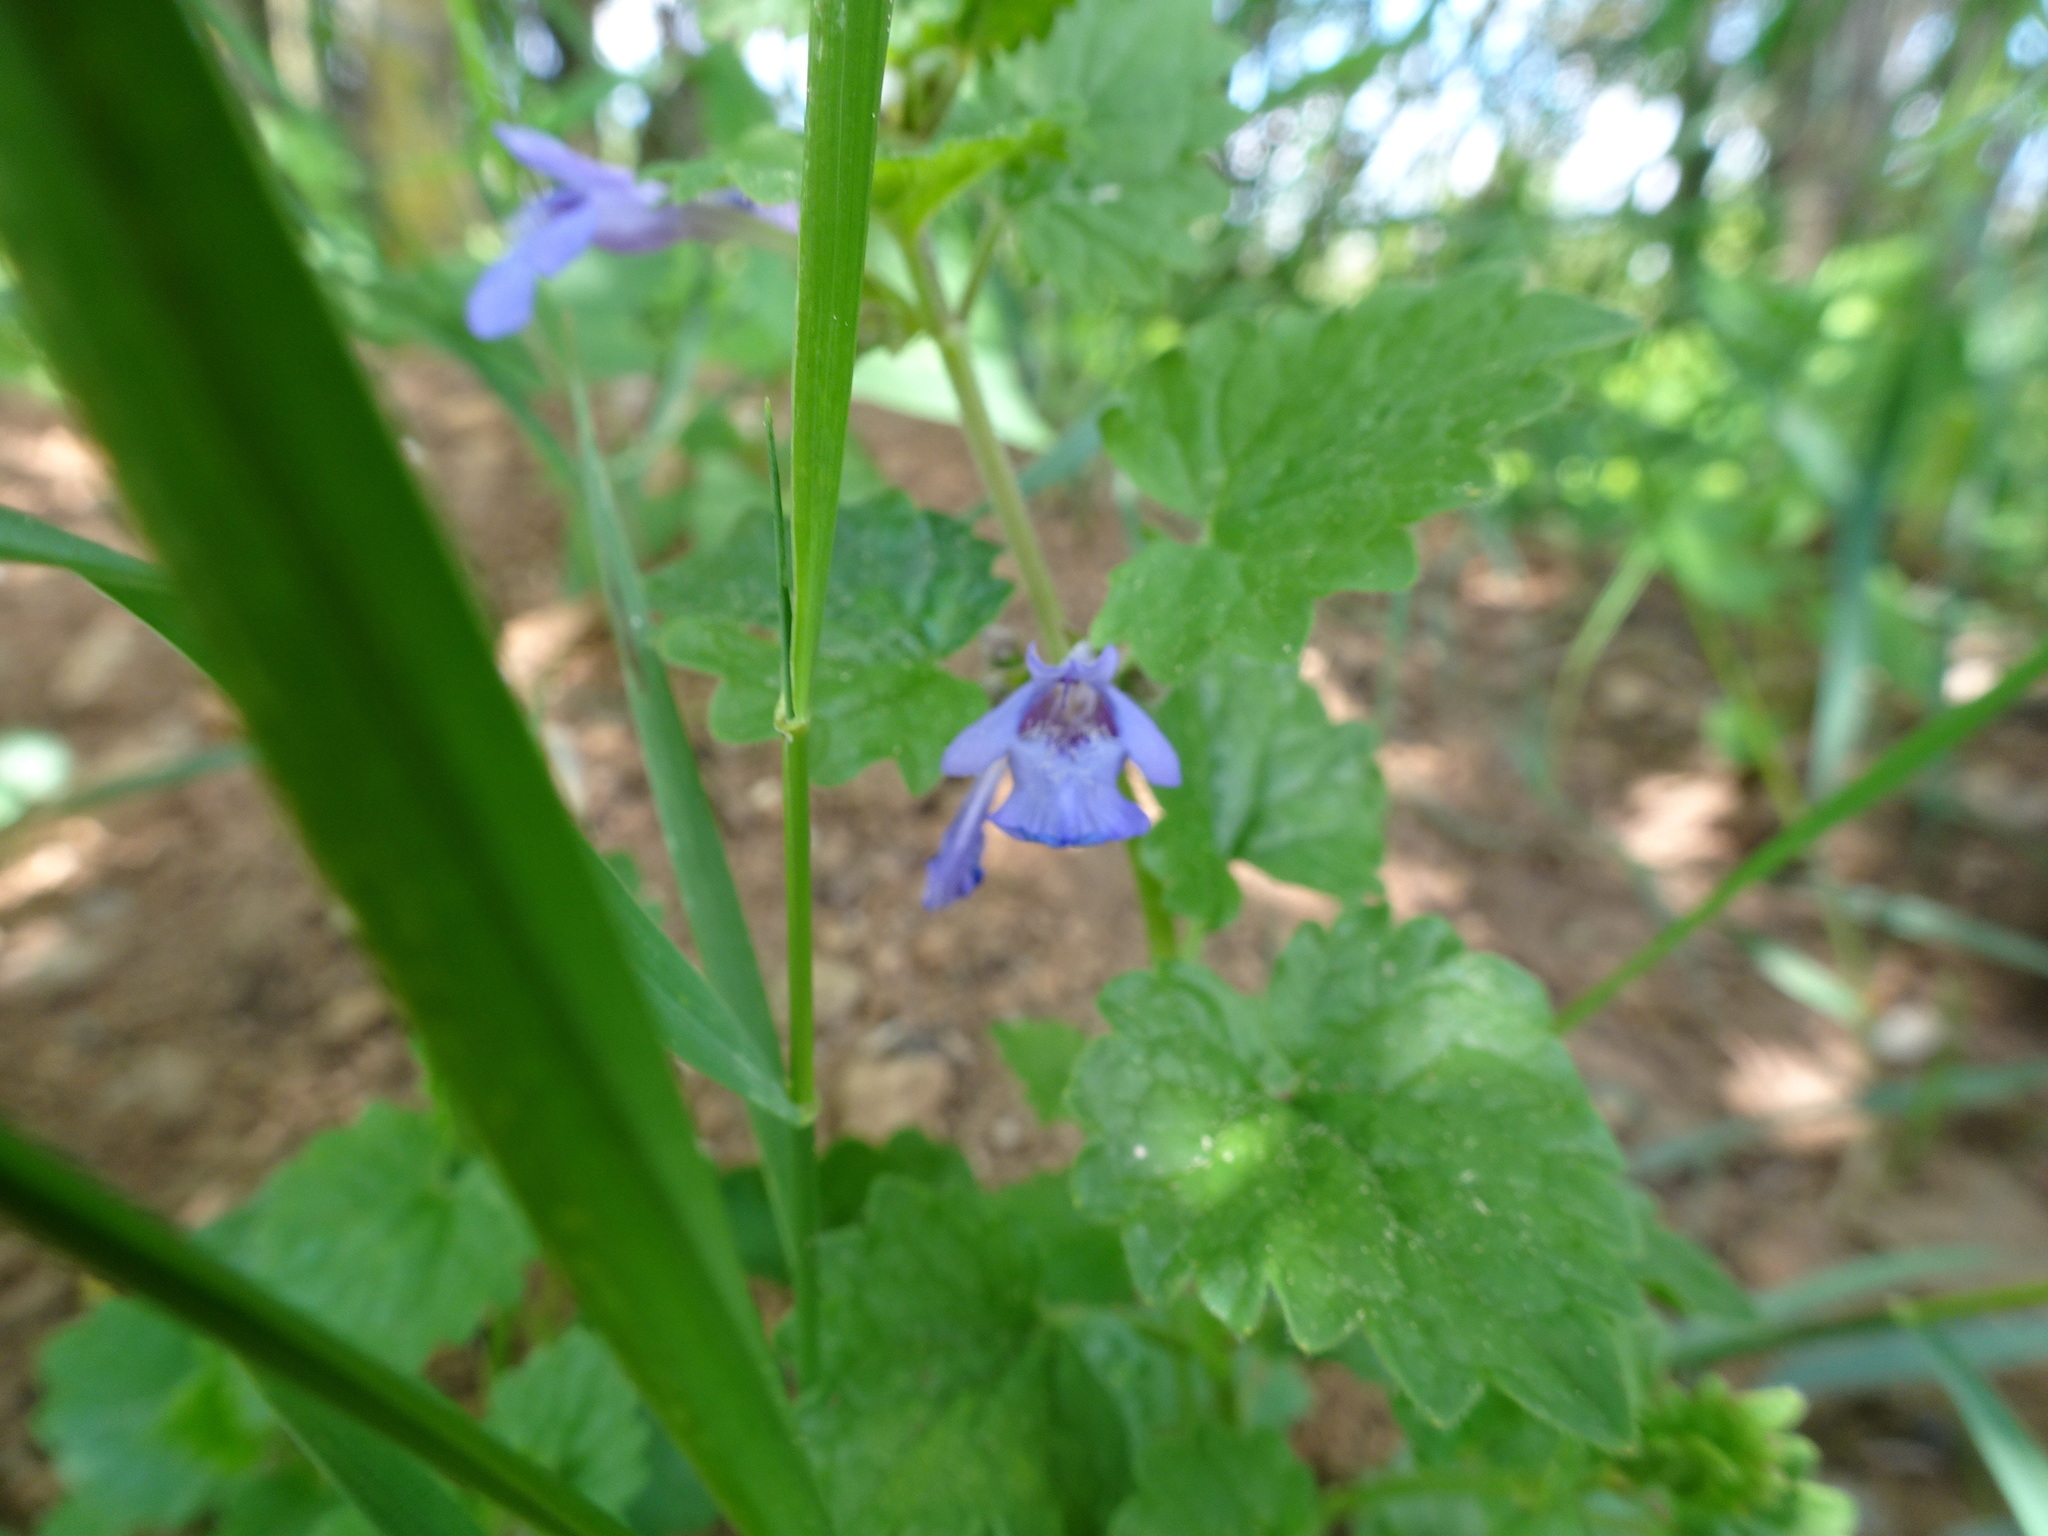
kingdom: Plantae
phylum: Tracheophyta
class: Magnoliopsida
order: Lamiales
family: Lamiaceae
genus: Glechoma
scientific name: Glechoma hederacea
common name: Ground ivy
